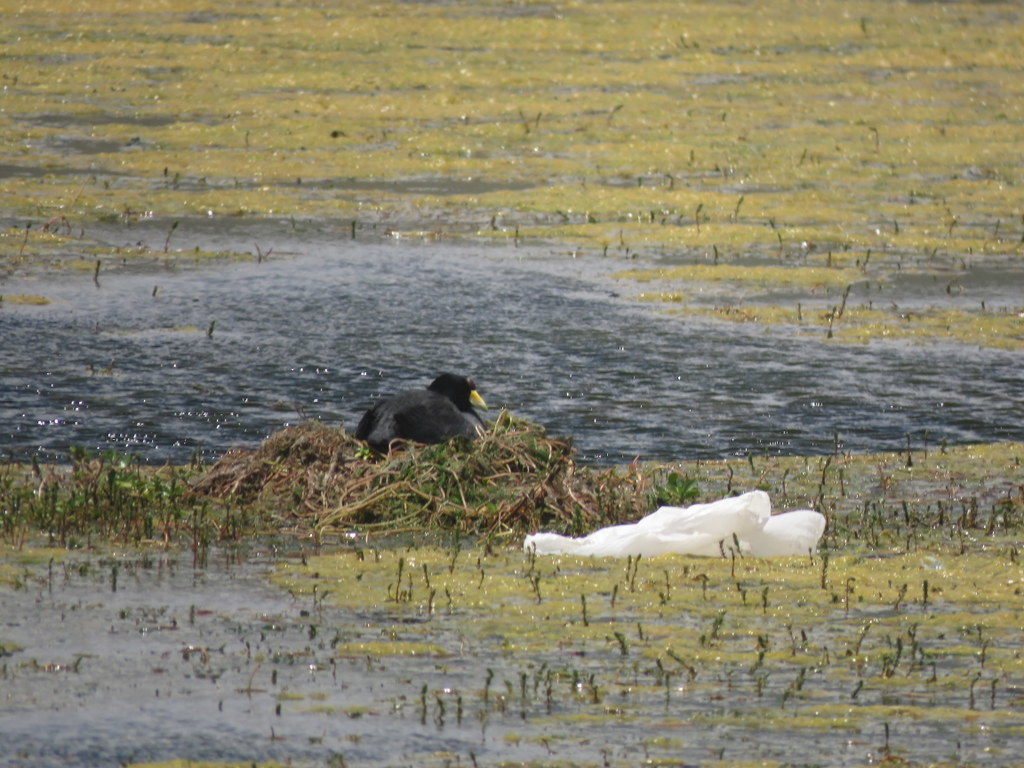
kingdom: Animalia
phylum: Chordata
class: Aves
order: Gruiformes
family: Rallidae
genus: Fulica
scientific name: Fulica ardesiaca
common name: Andean coot
